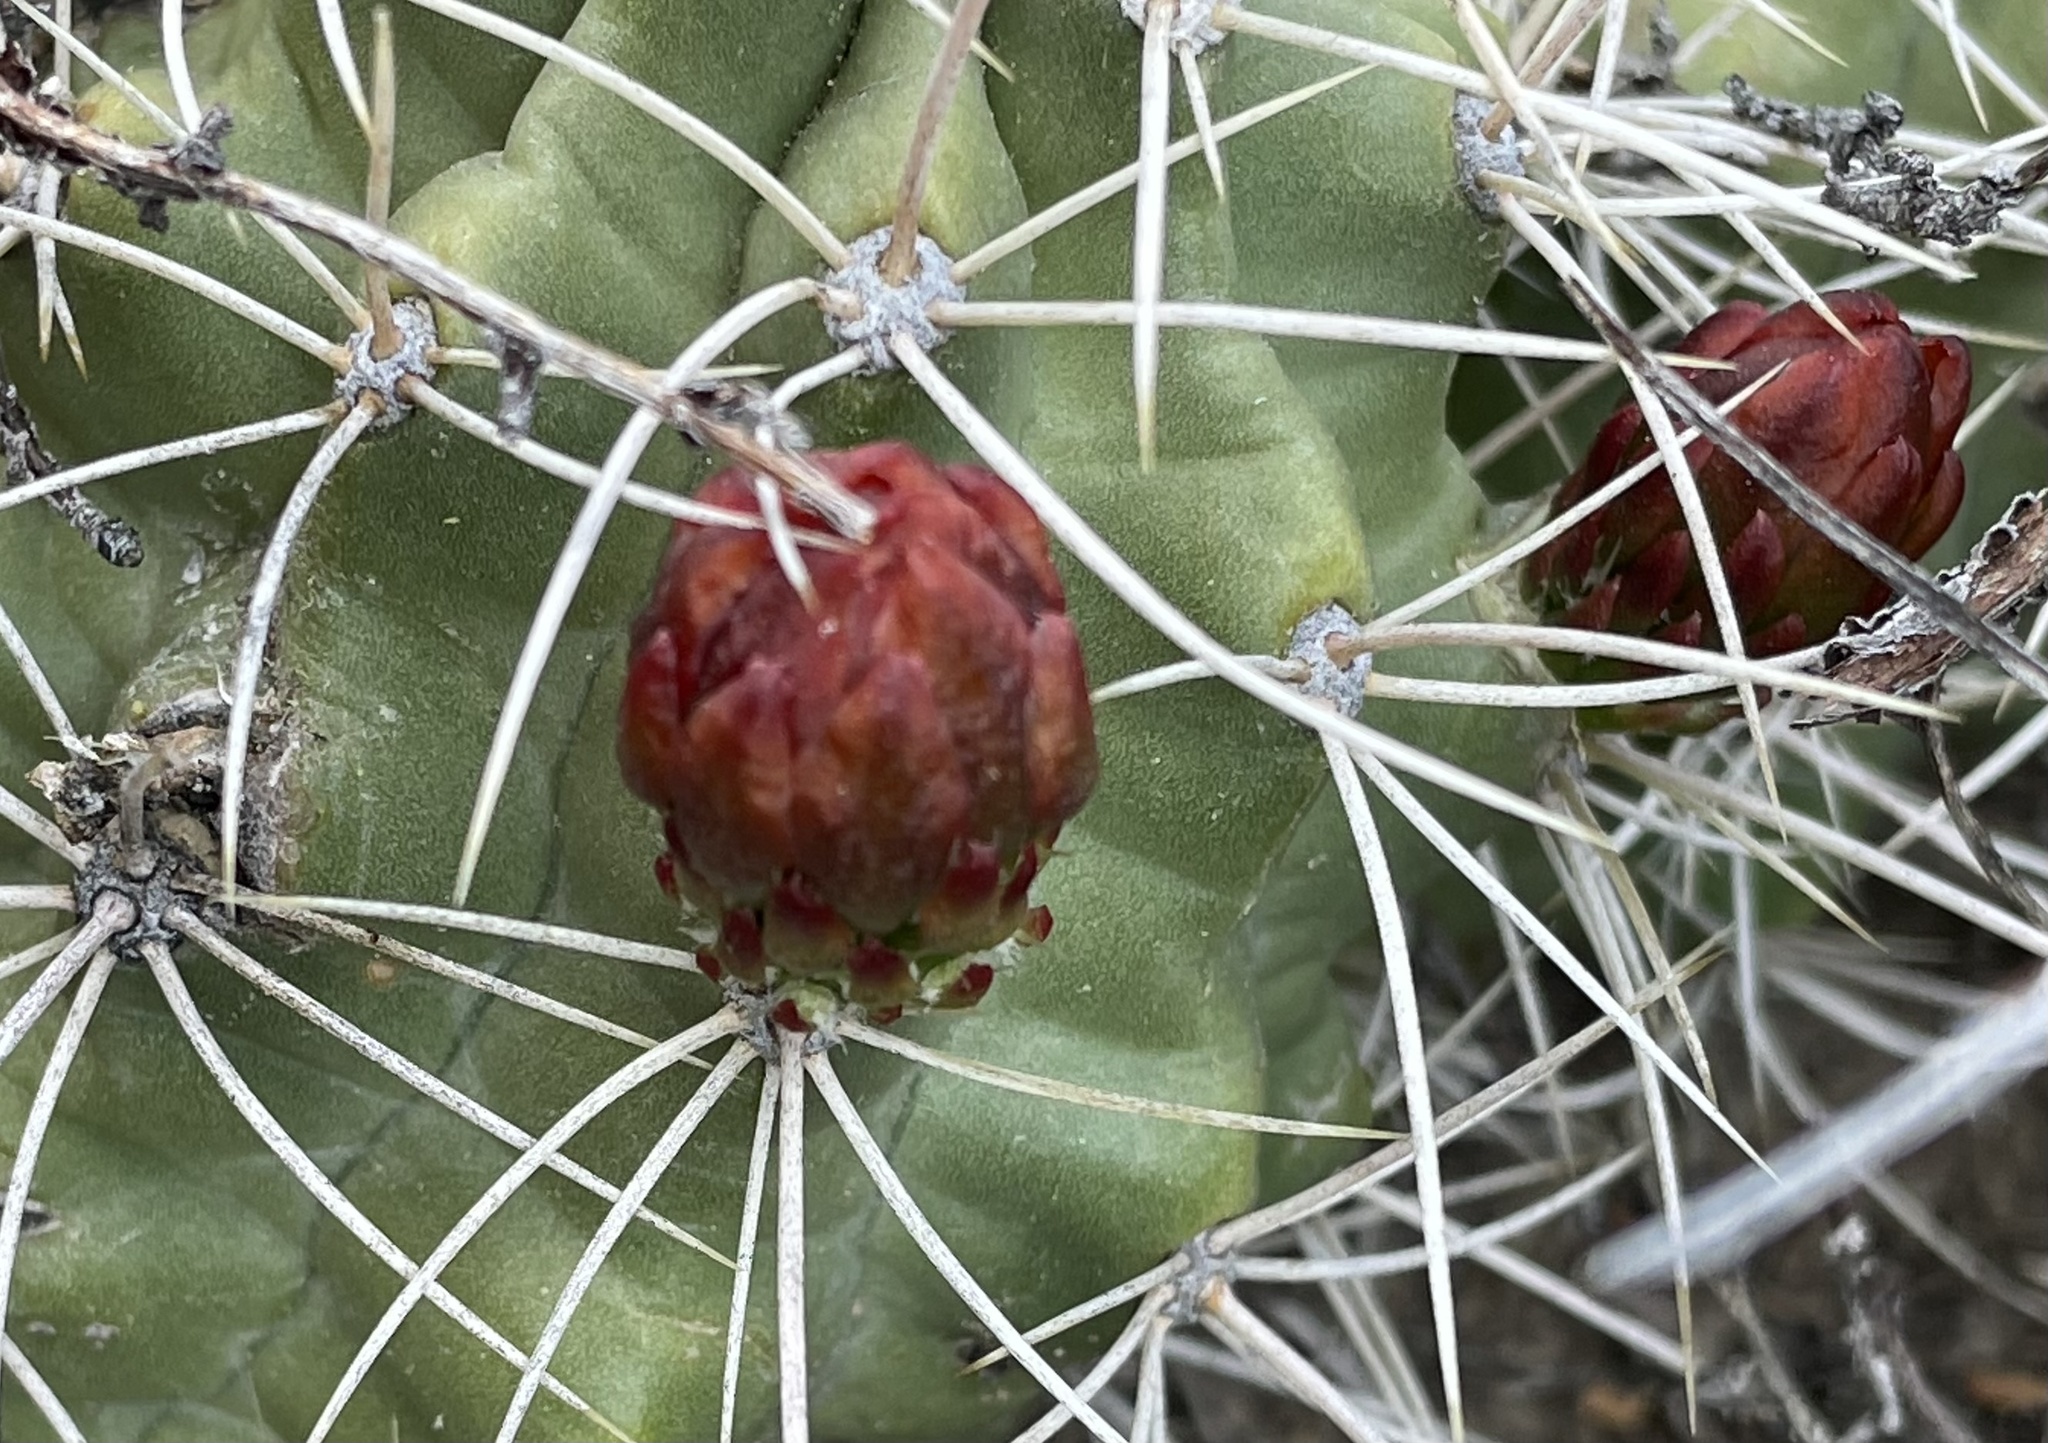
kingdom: Plantae
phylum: Tracheophyta
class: Magnoliopsida
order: Caryophyllales
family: Cactaceae
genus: Echinocereus
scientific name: Echinocereus triglochidiatus
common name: Claretcup hedgehog
